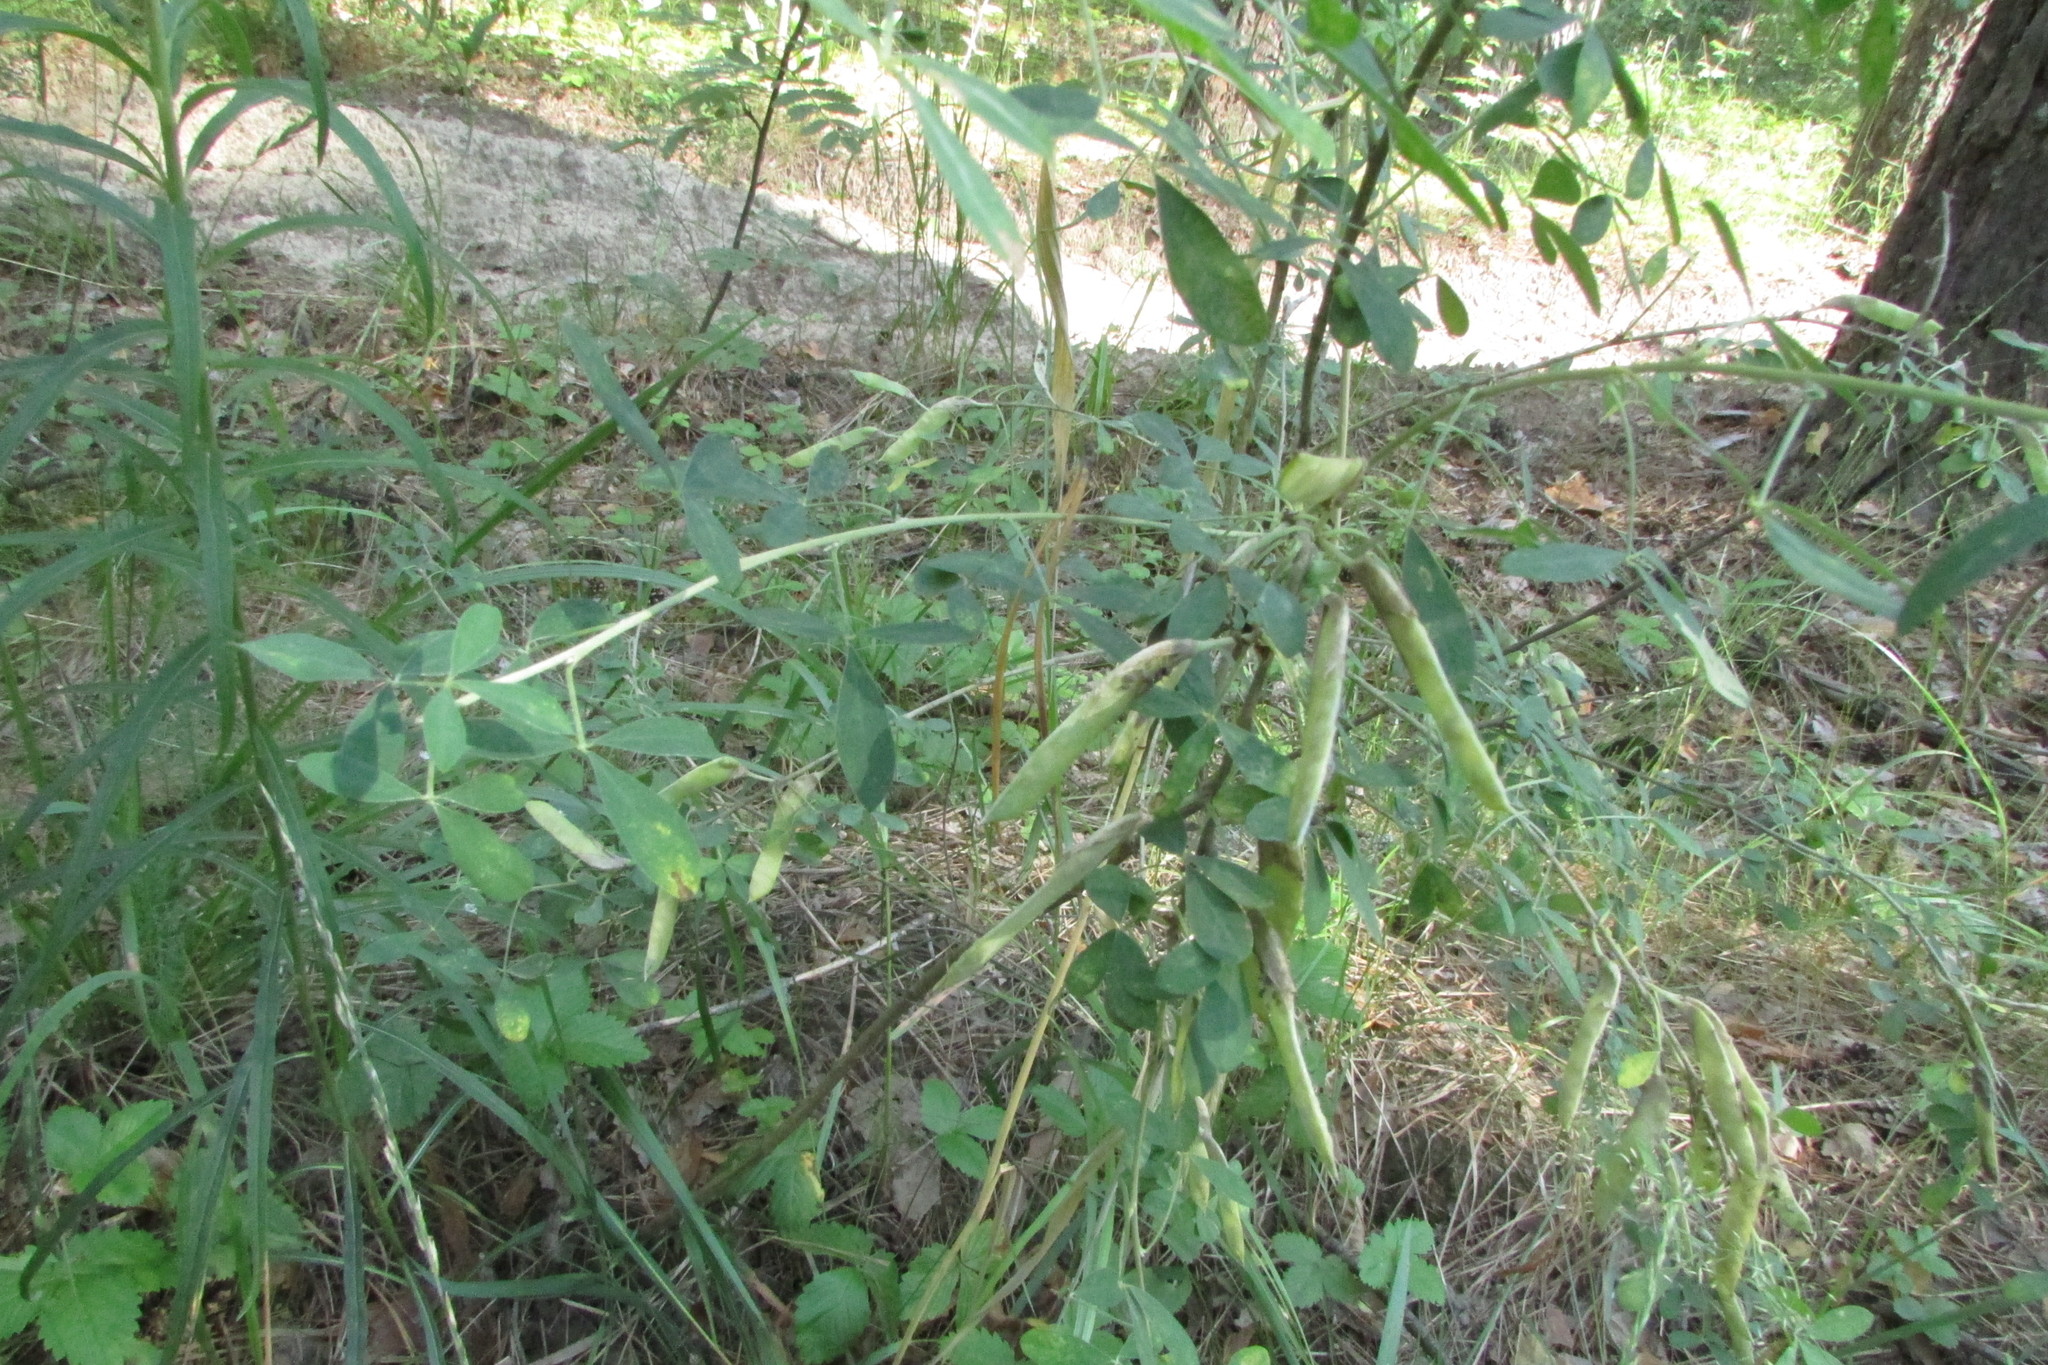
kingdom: Plantae
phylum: Tracheophyta
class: Magnoliopsida
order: Fabales
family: Fabaceae
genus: Chamaecytisus
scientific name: Chamaecytisus ruthenicus
